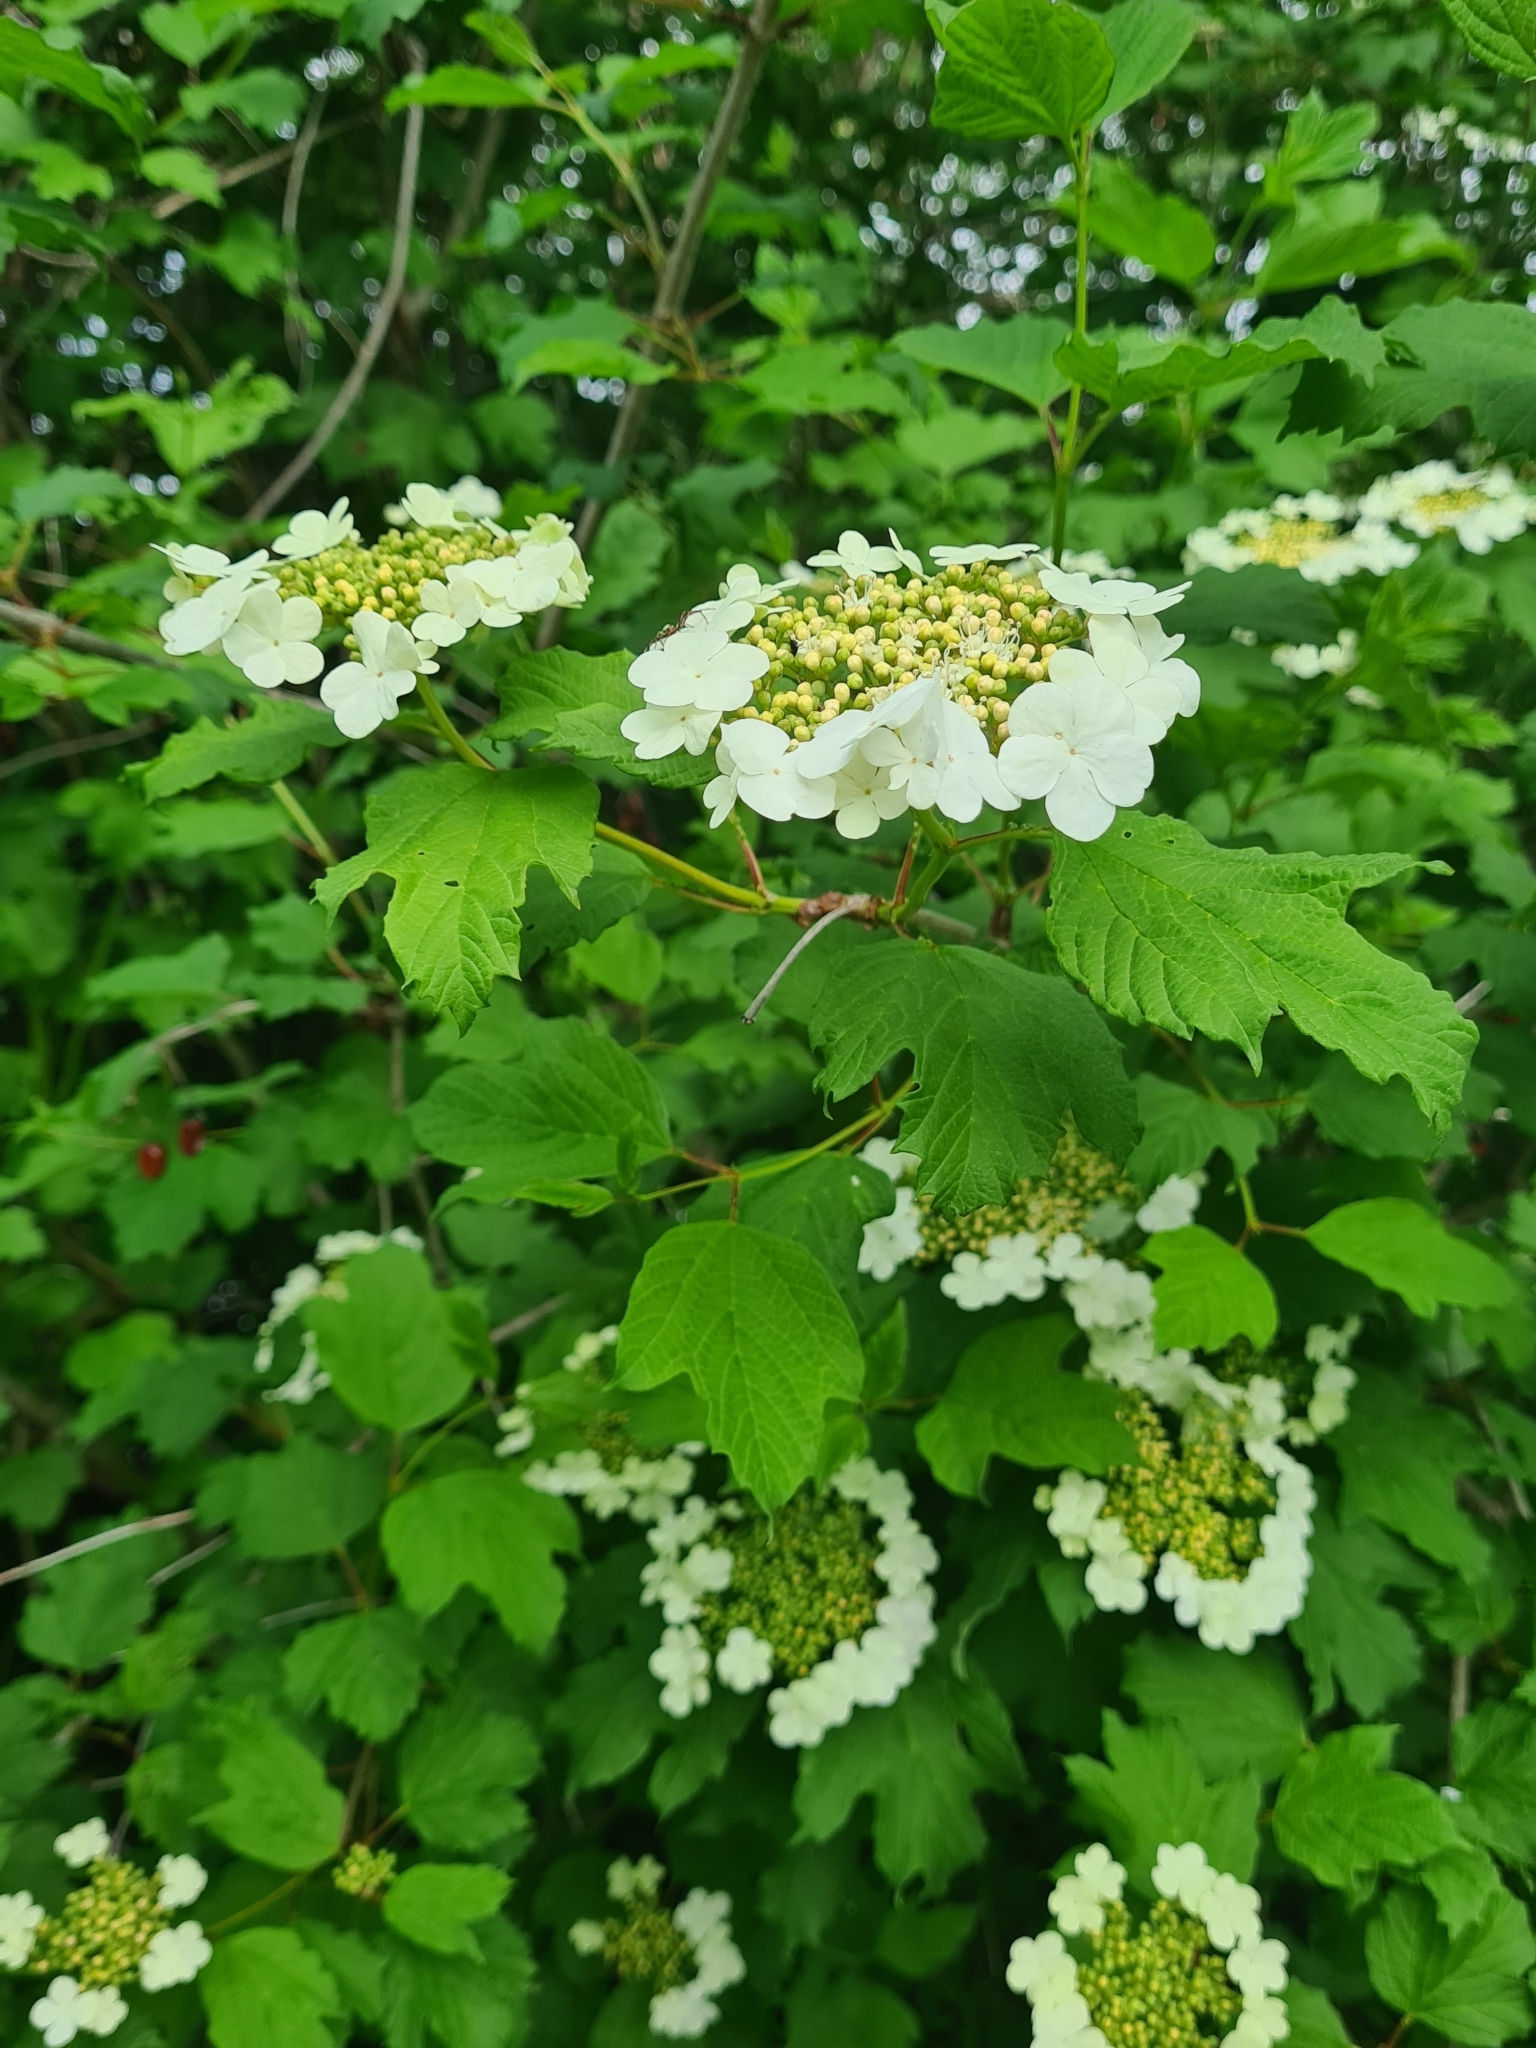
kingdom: Plantae
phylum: Tracheophyta
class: Magnoliopsida
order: Dipsacales
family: Viburnaceae
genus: Viburnum
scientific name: Viburnum opulus
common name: Guelder-rose
